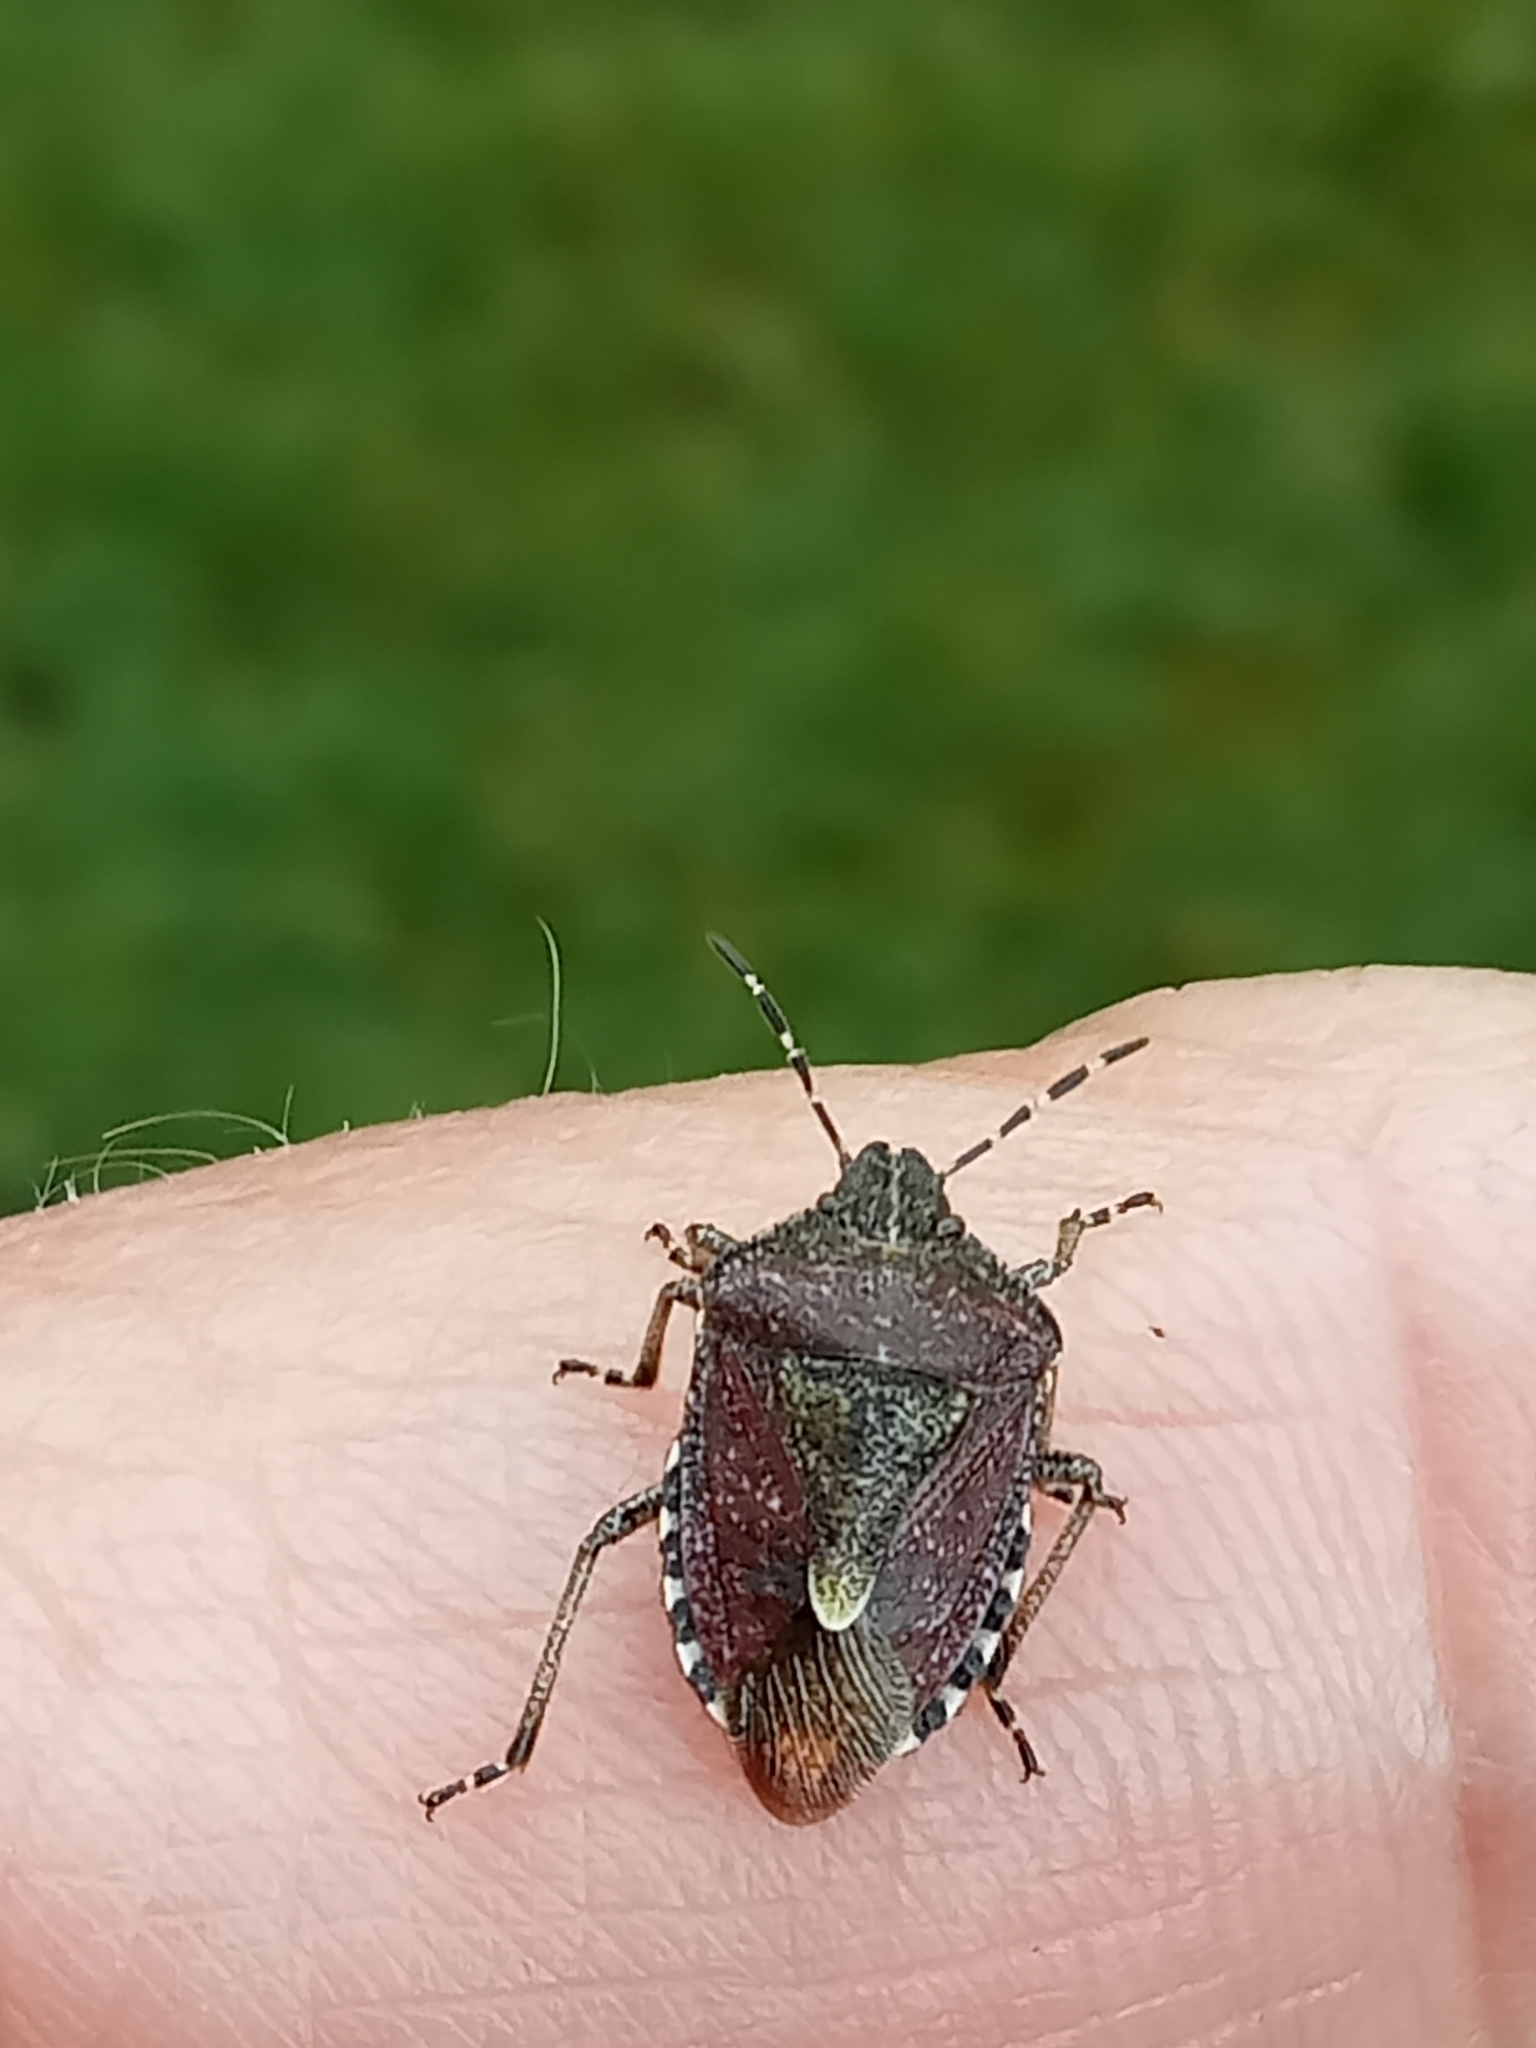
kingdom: Animalia
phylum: Arthropoda
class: Insecta
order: Hemiptera
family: Pentatomidae
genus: Dolycoris
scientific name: Dolycoris baccarum
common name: Sloe bug
